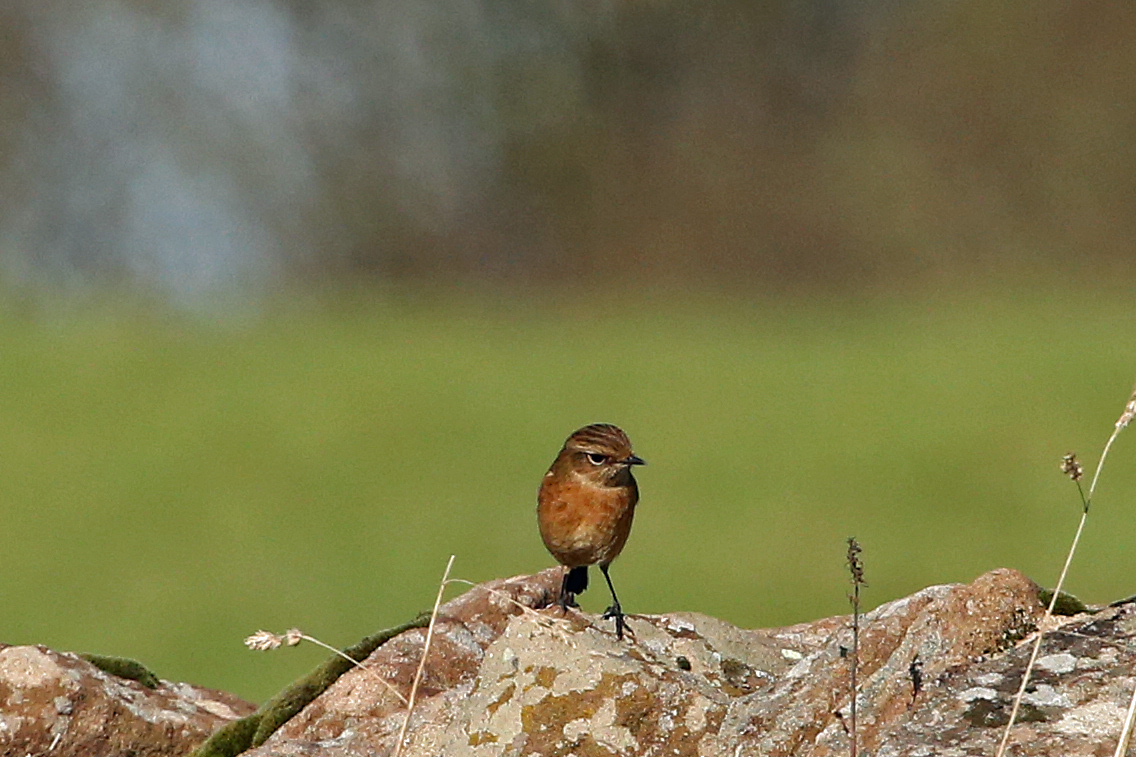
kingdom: Animalia
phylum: Chordata
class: Aves
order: Passeriformes
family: Muscicapidae
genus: Saxicola
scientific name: Saxicola rubicola
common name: European stonechat
